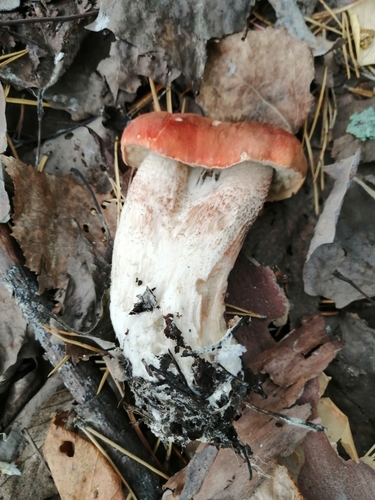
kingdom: Fungi
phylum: Basidiomycota
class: Agaricomycetes
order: Boletales
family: Boletaceae
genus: Leccinum
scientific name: Leccinum aurantiacum
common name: Orange bolete
